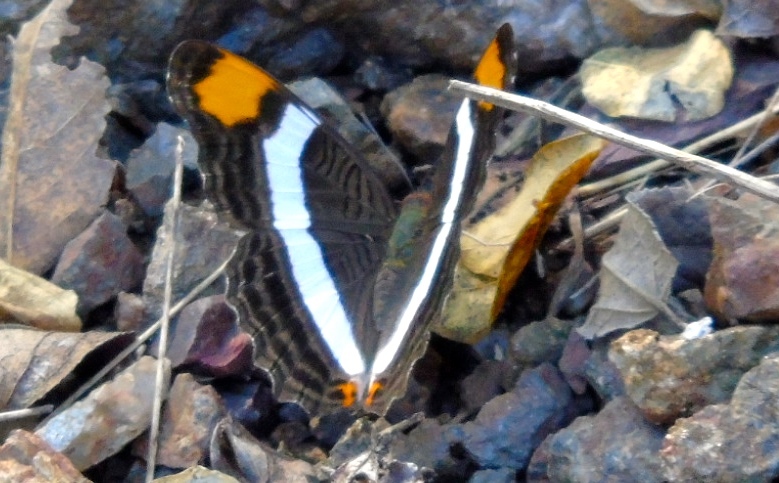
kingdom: Animalia
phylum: Arthropoda
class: Insecta
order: Lepidoptera
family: Nymphalidae
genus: Limenitis
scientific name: Limenitis fessonia
